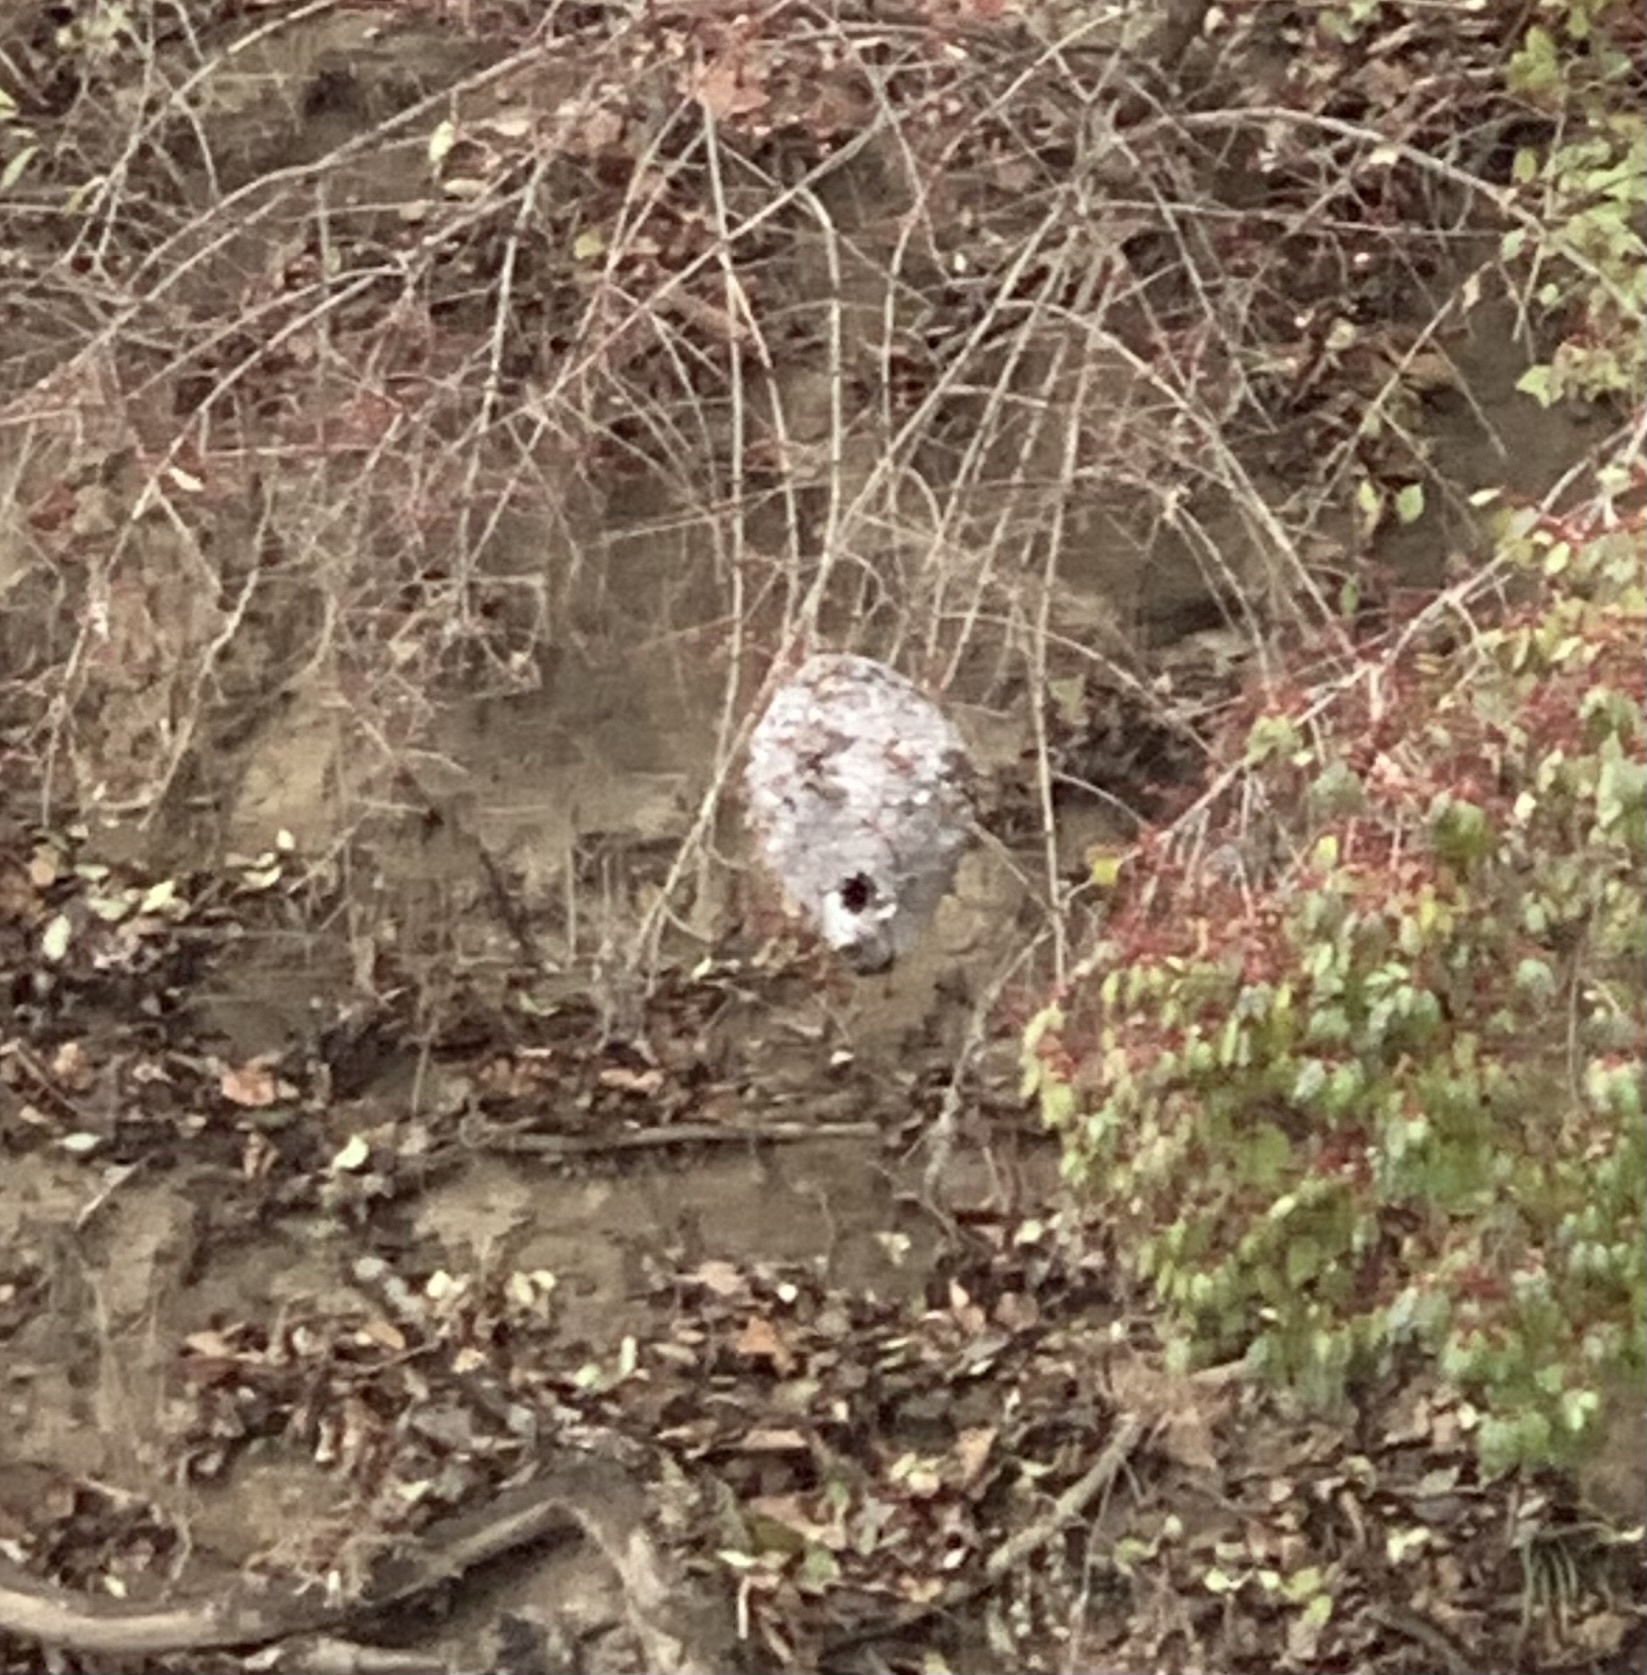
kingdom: Animalia
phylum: Arthropoda
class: Insecta
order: Hymenoptera
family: Vespidae
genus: Dolichovespula
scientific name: Dolichovespula maculata
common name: Bald-faced hornet
